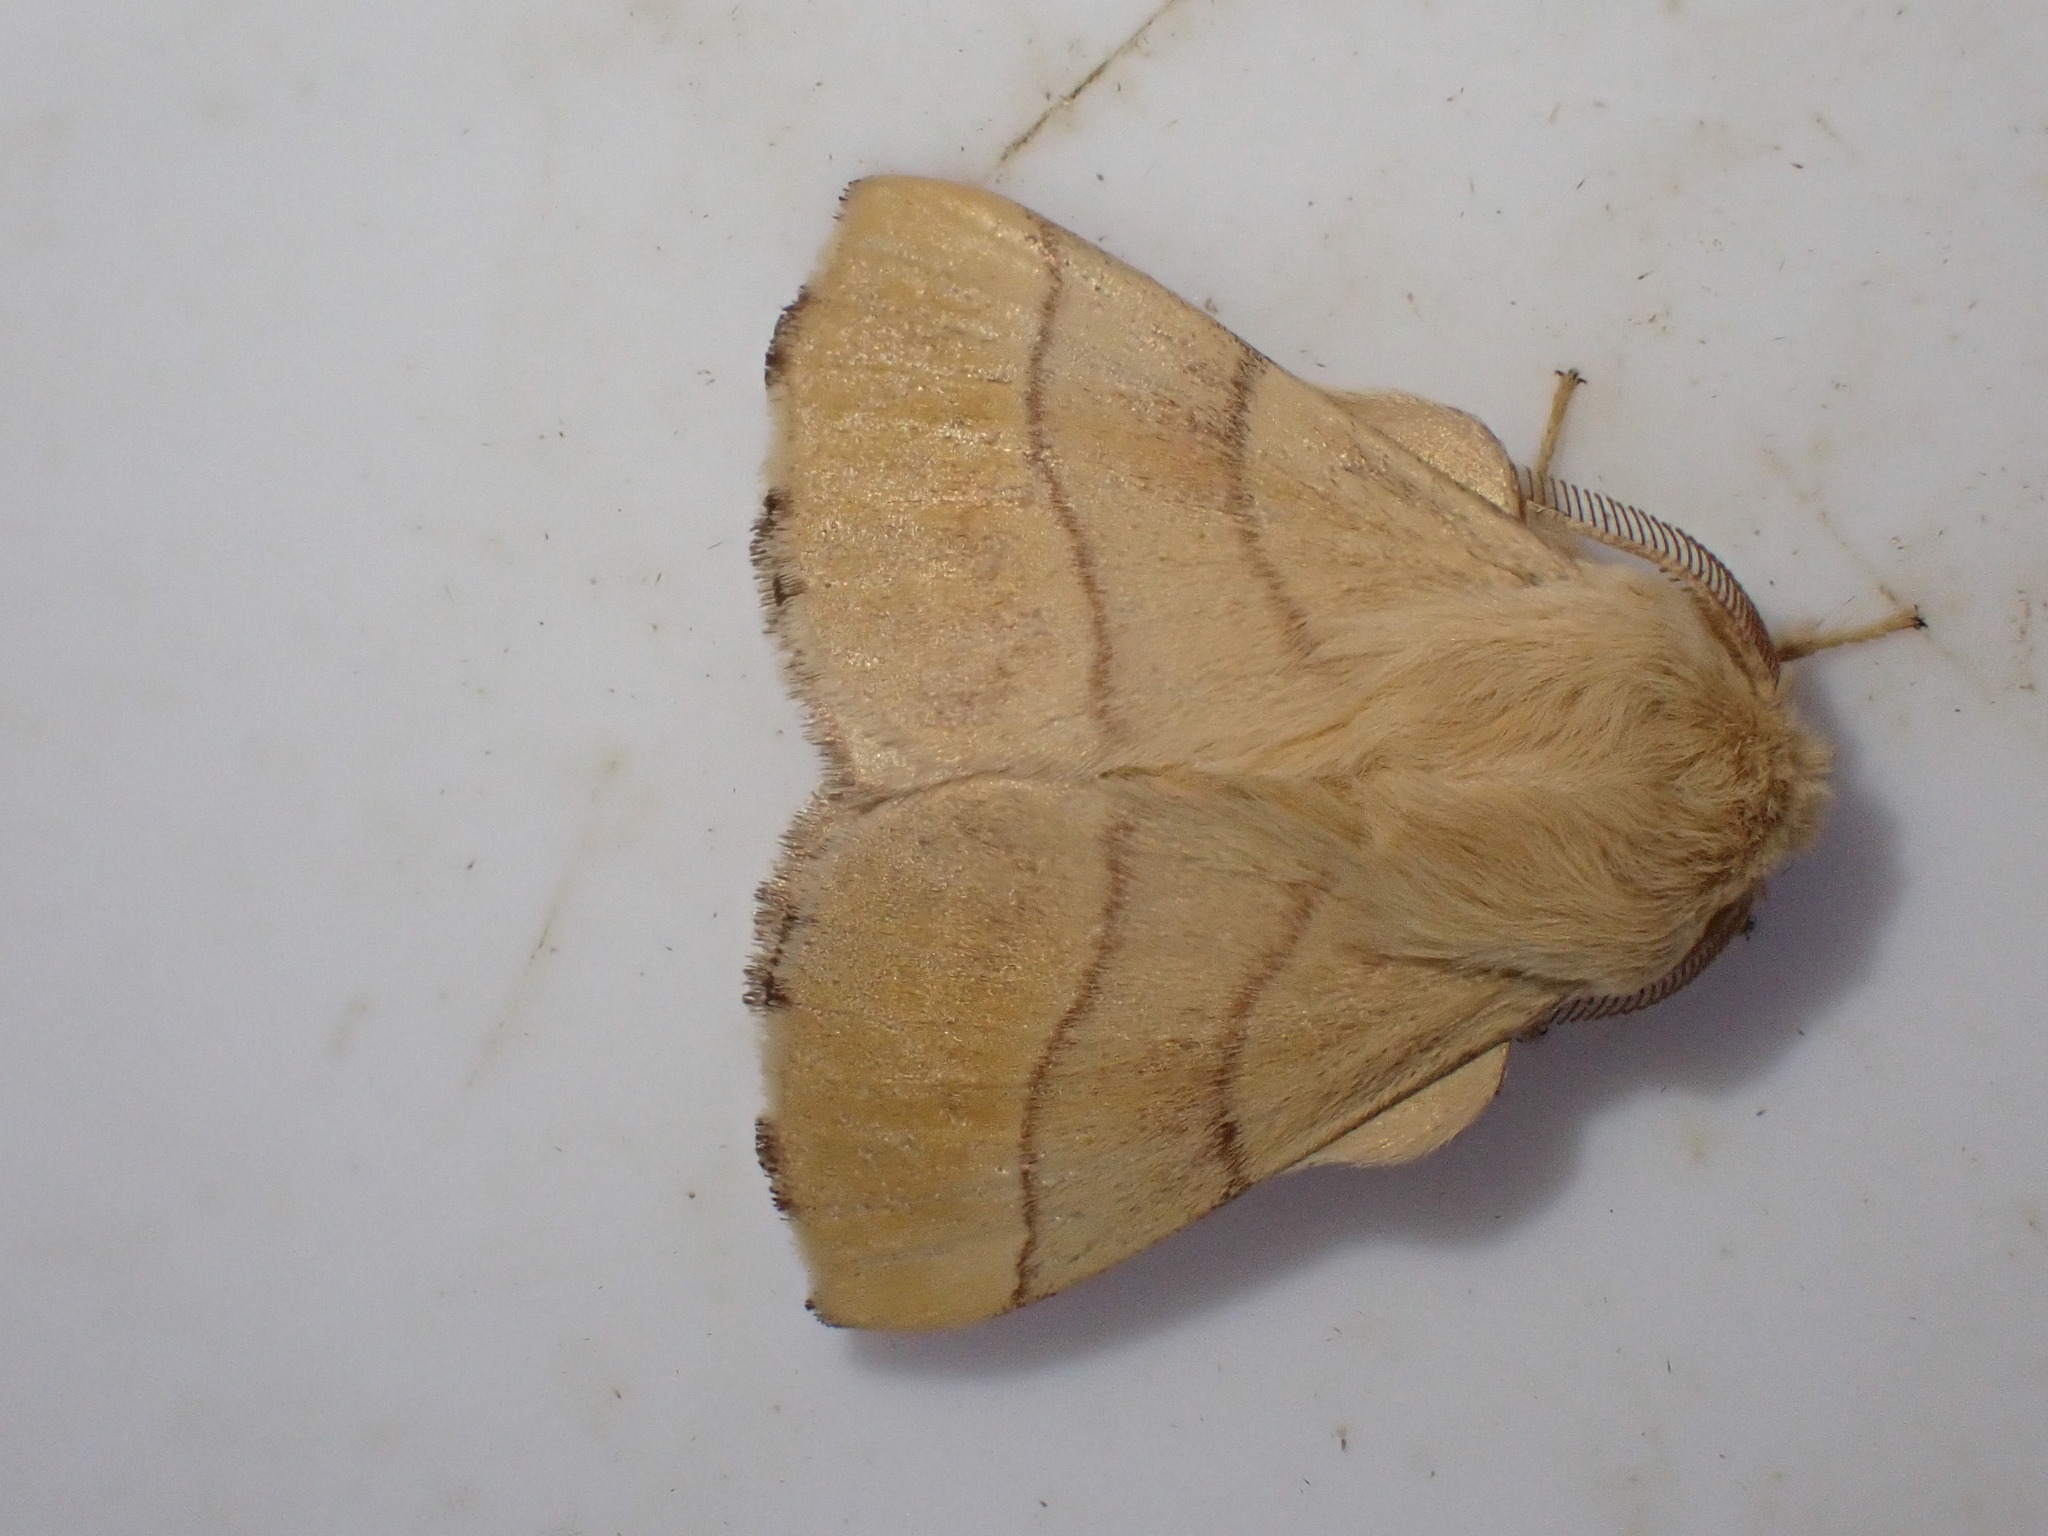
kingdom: Animalia
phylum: Arthropoda
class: Insecta
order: Lepidoptera
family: Lasiocampidae
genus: Malacosoma
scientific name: Malacosoma neustria
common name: The lackey
